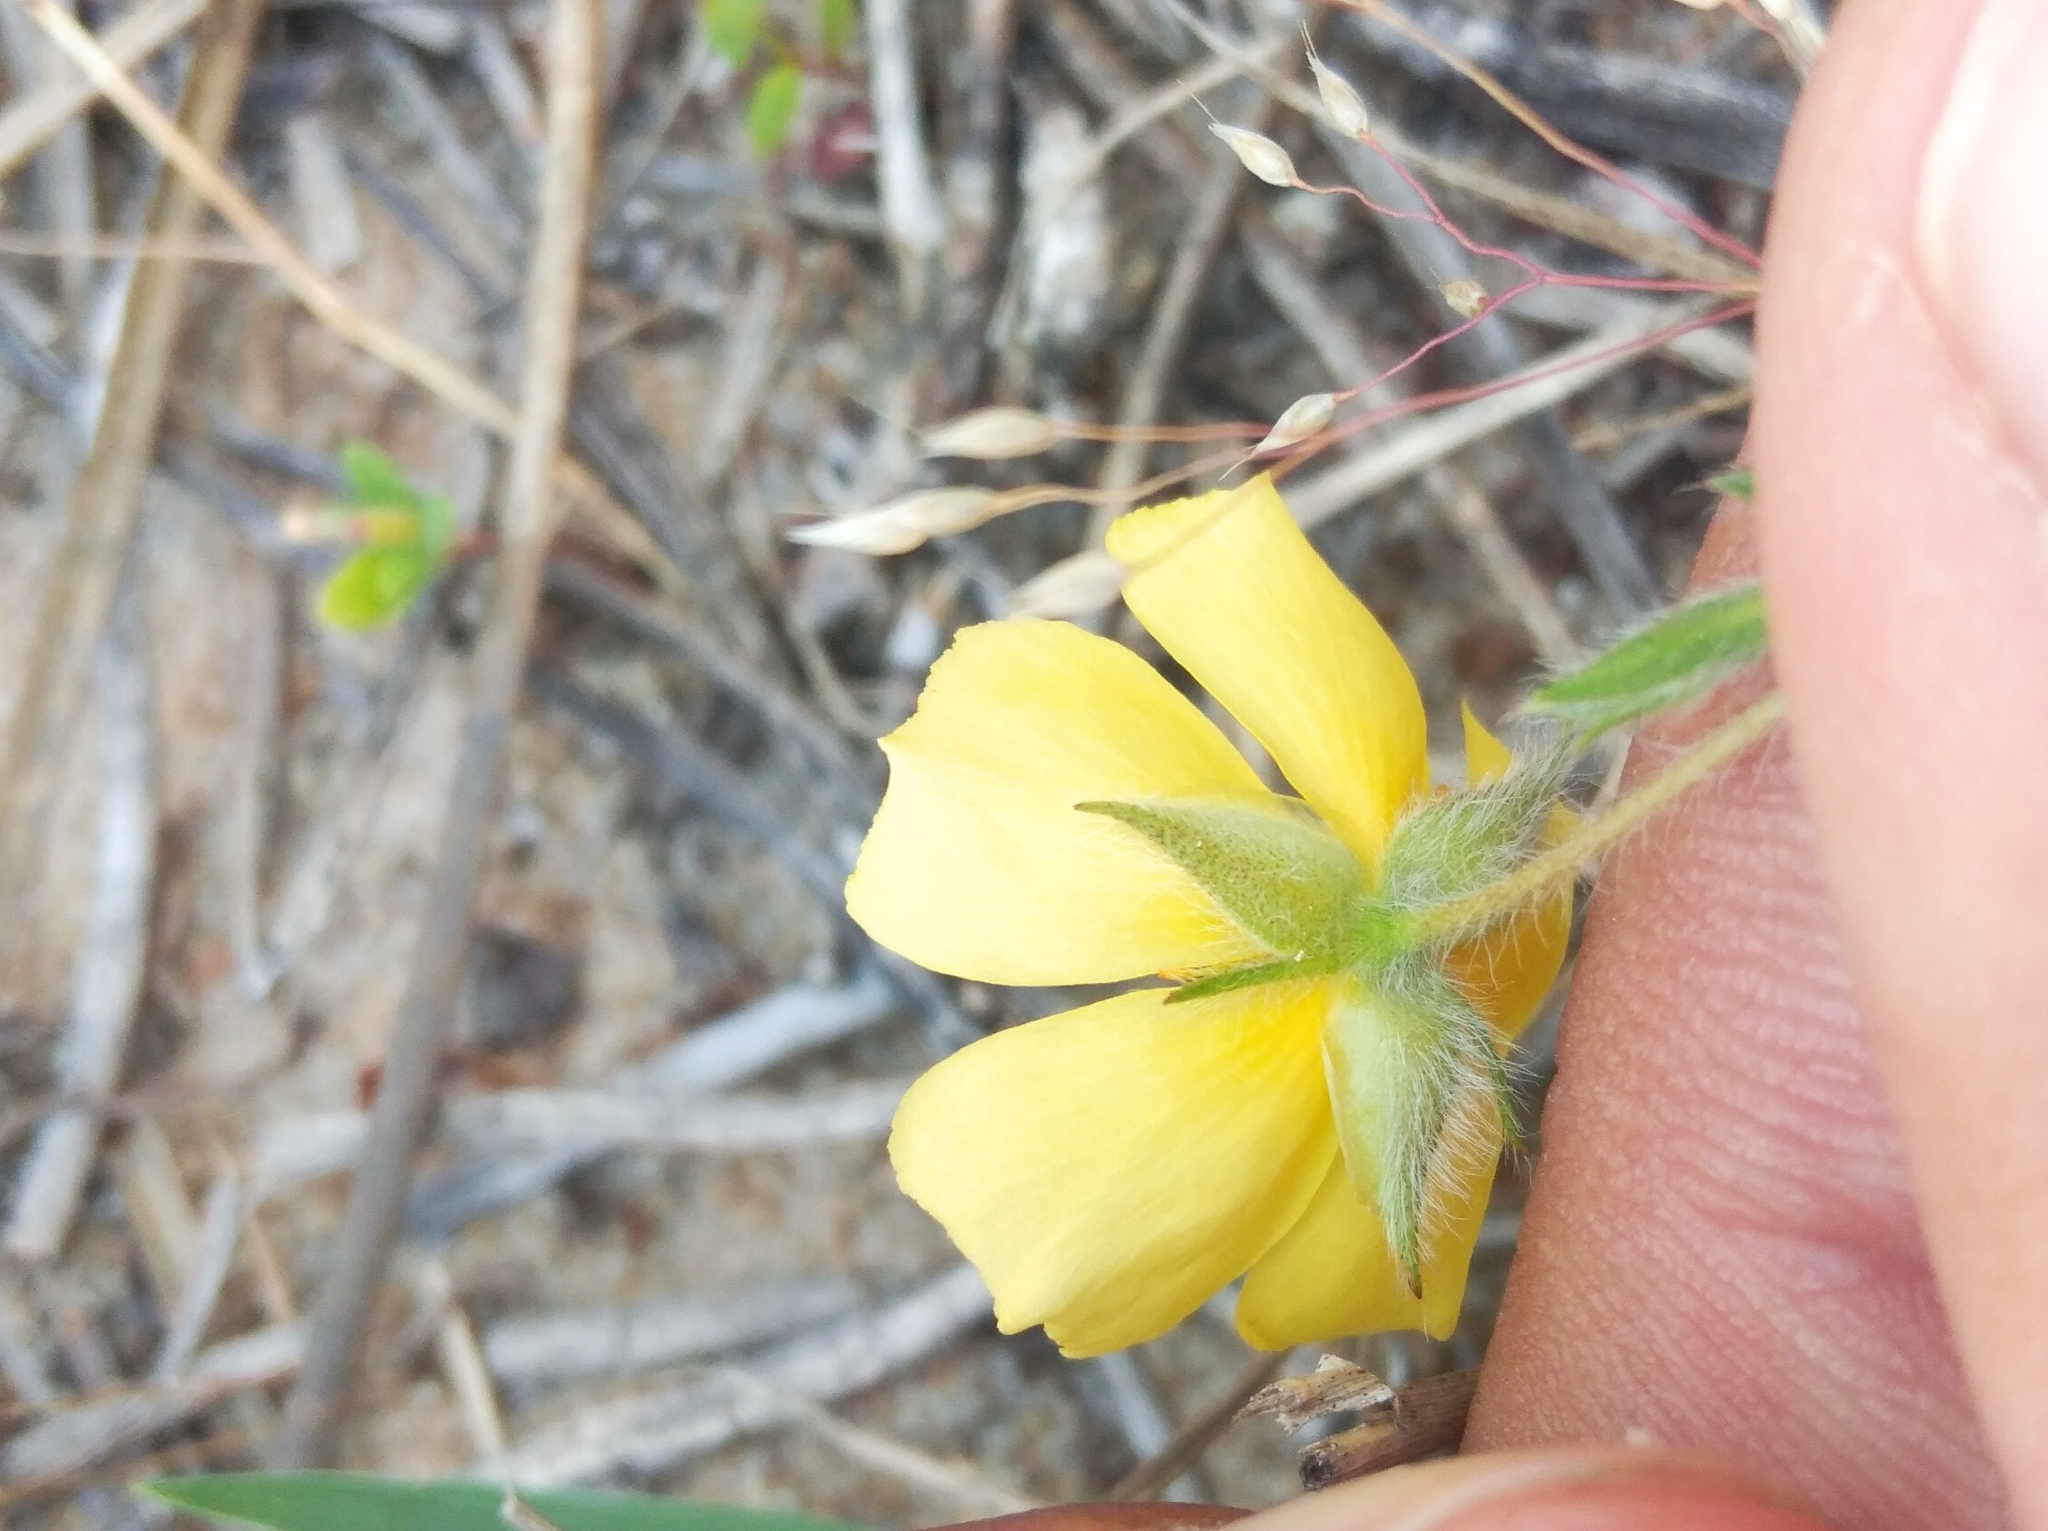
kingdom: Plantae
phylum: Tracheophyta
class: Magnoliopsida
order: Malvales
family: Cistaceae
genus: Crocanthemum
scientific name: Crocanthemum brasiliensis
